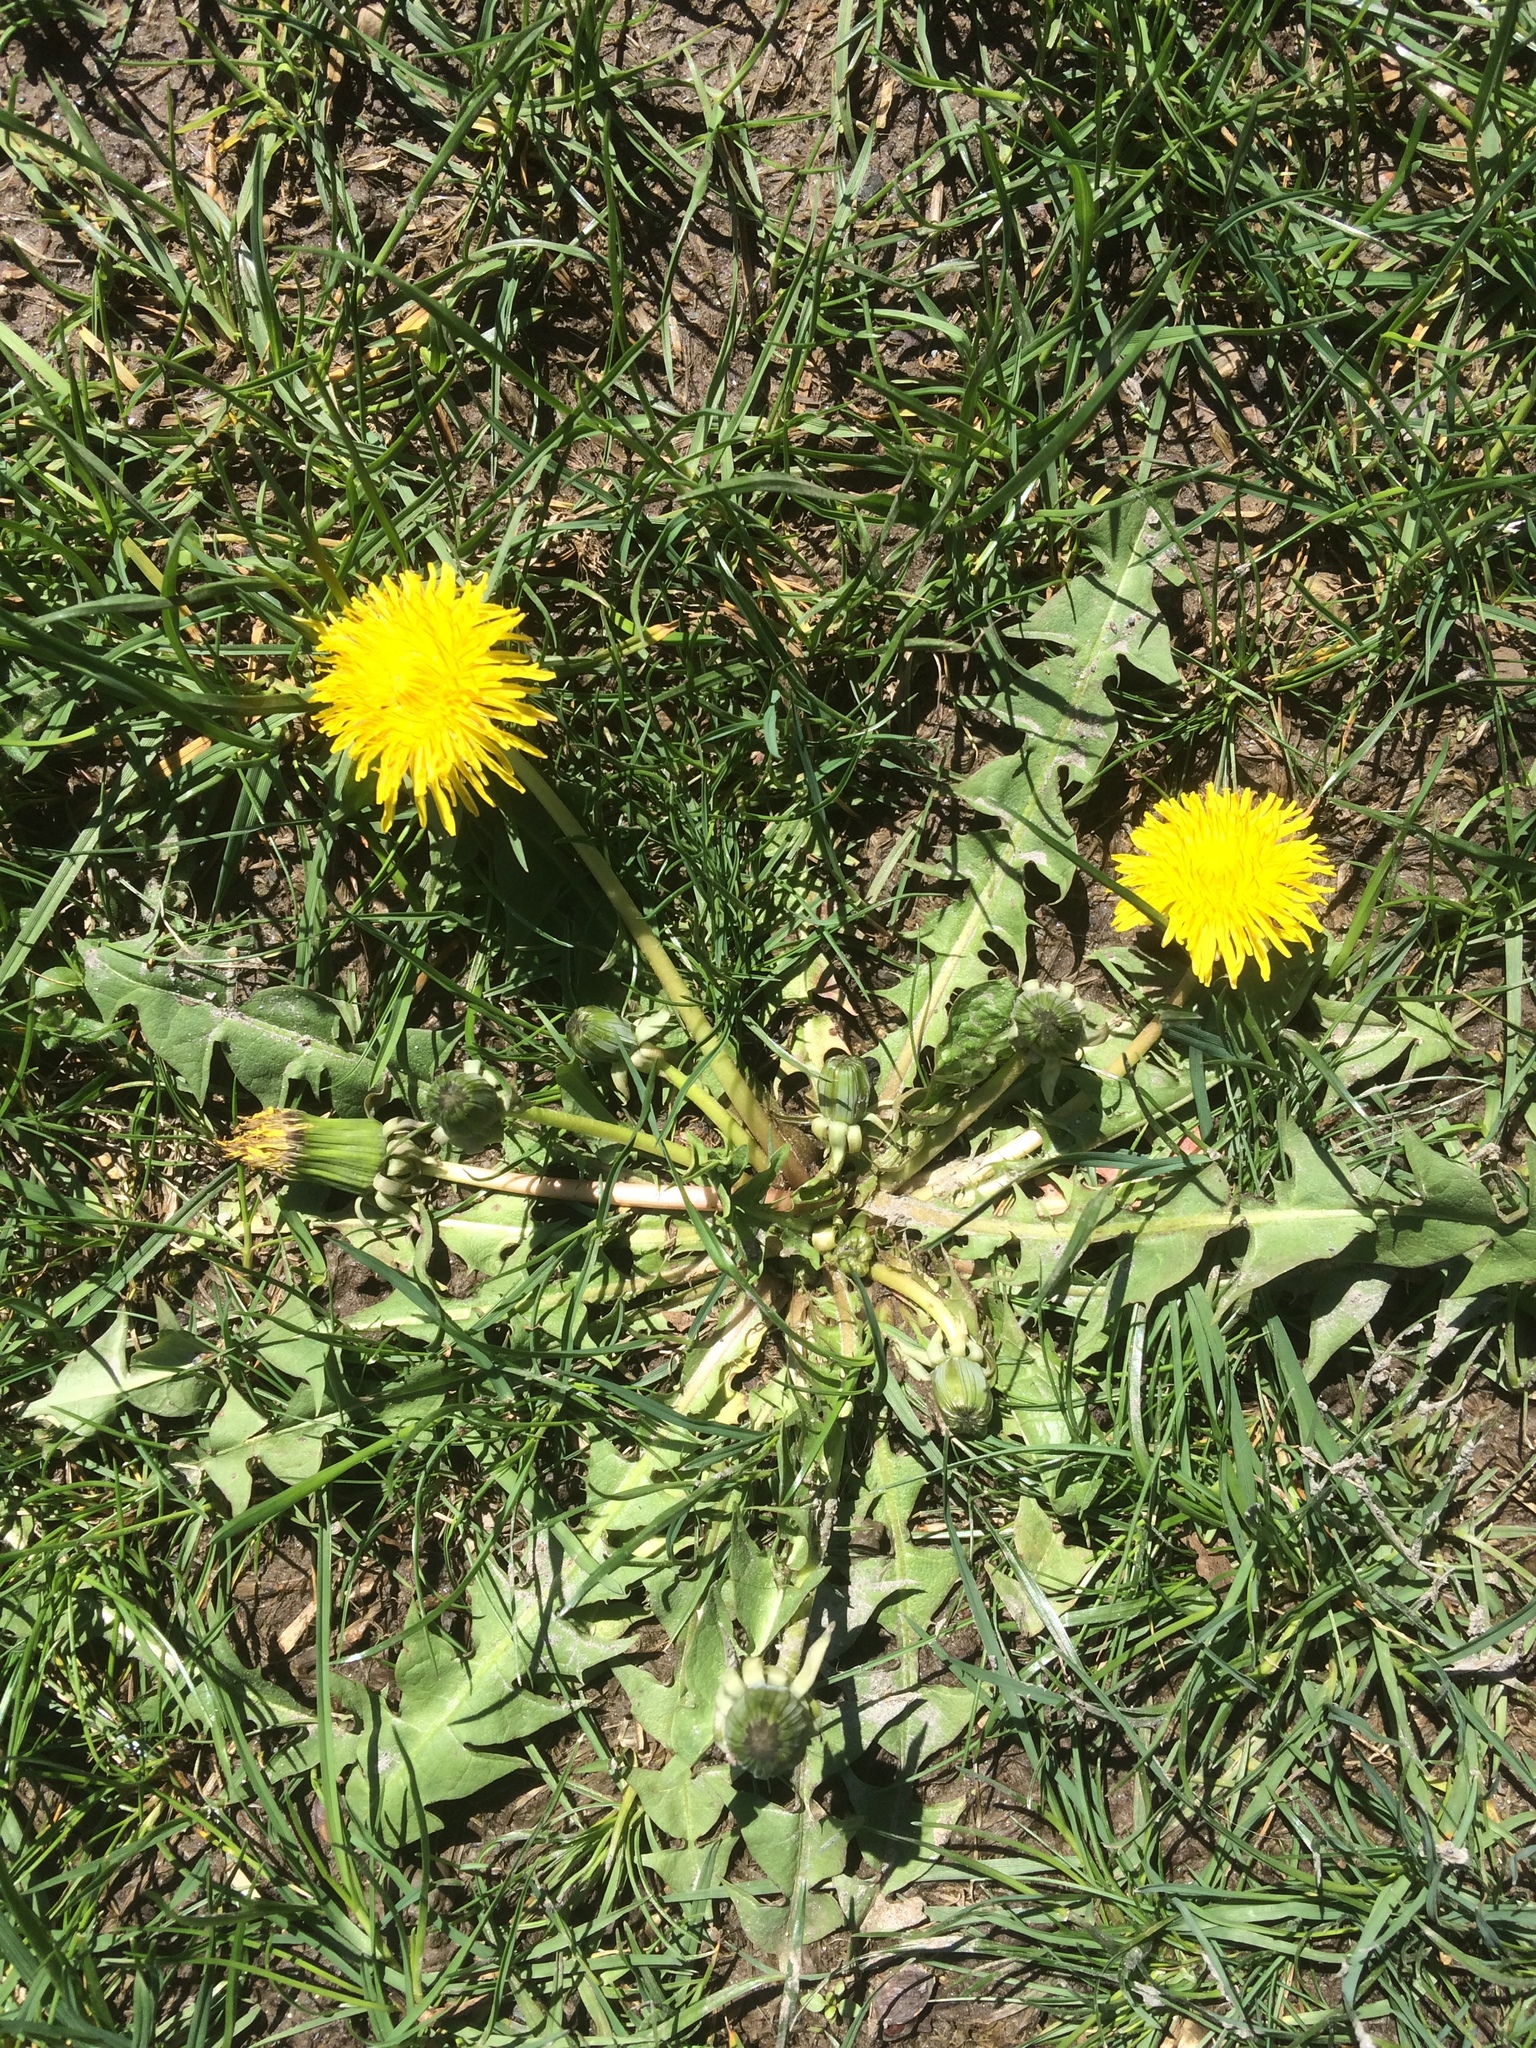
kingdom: Plantae
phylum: Tracheophyta
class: Magnoliopsida
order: Asterales
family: Asteraceae
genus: Taraxacum
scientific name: Taraxacum officinale
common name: Common dandelion
